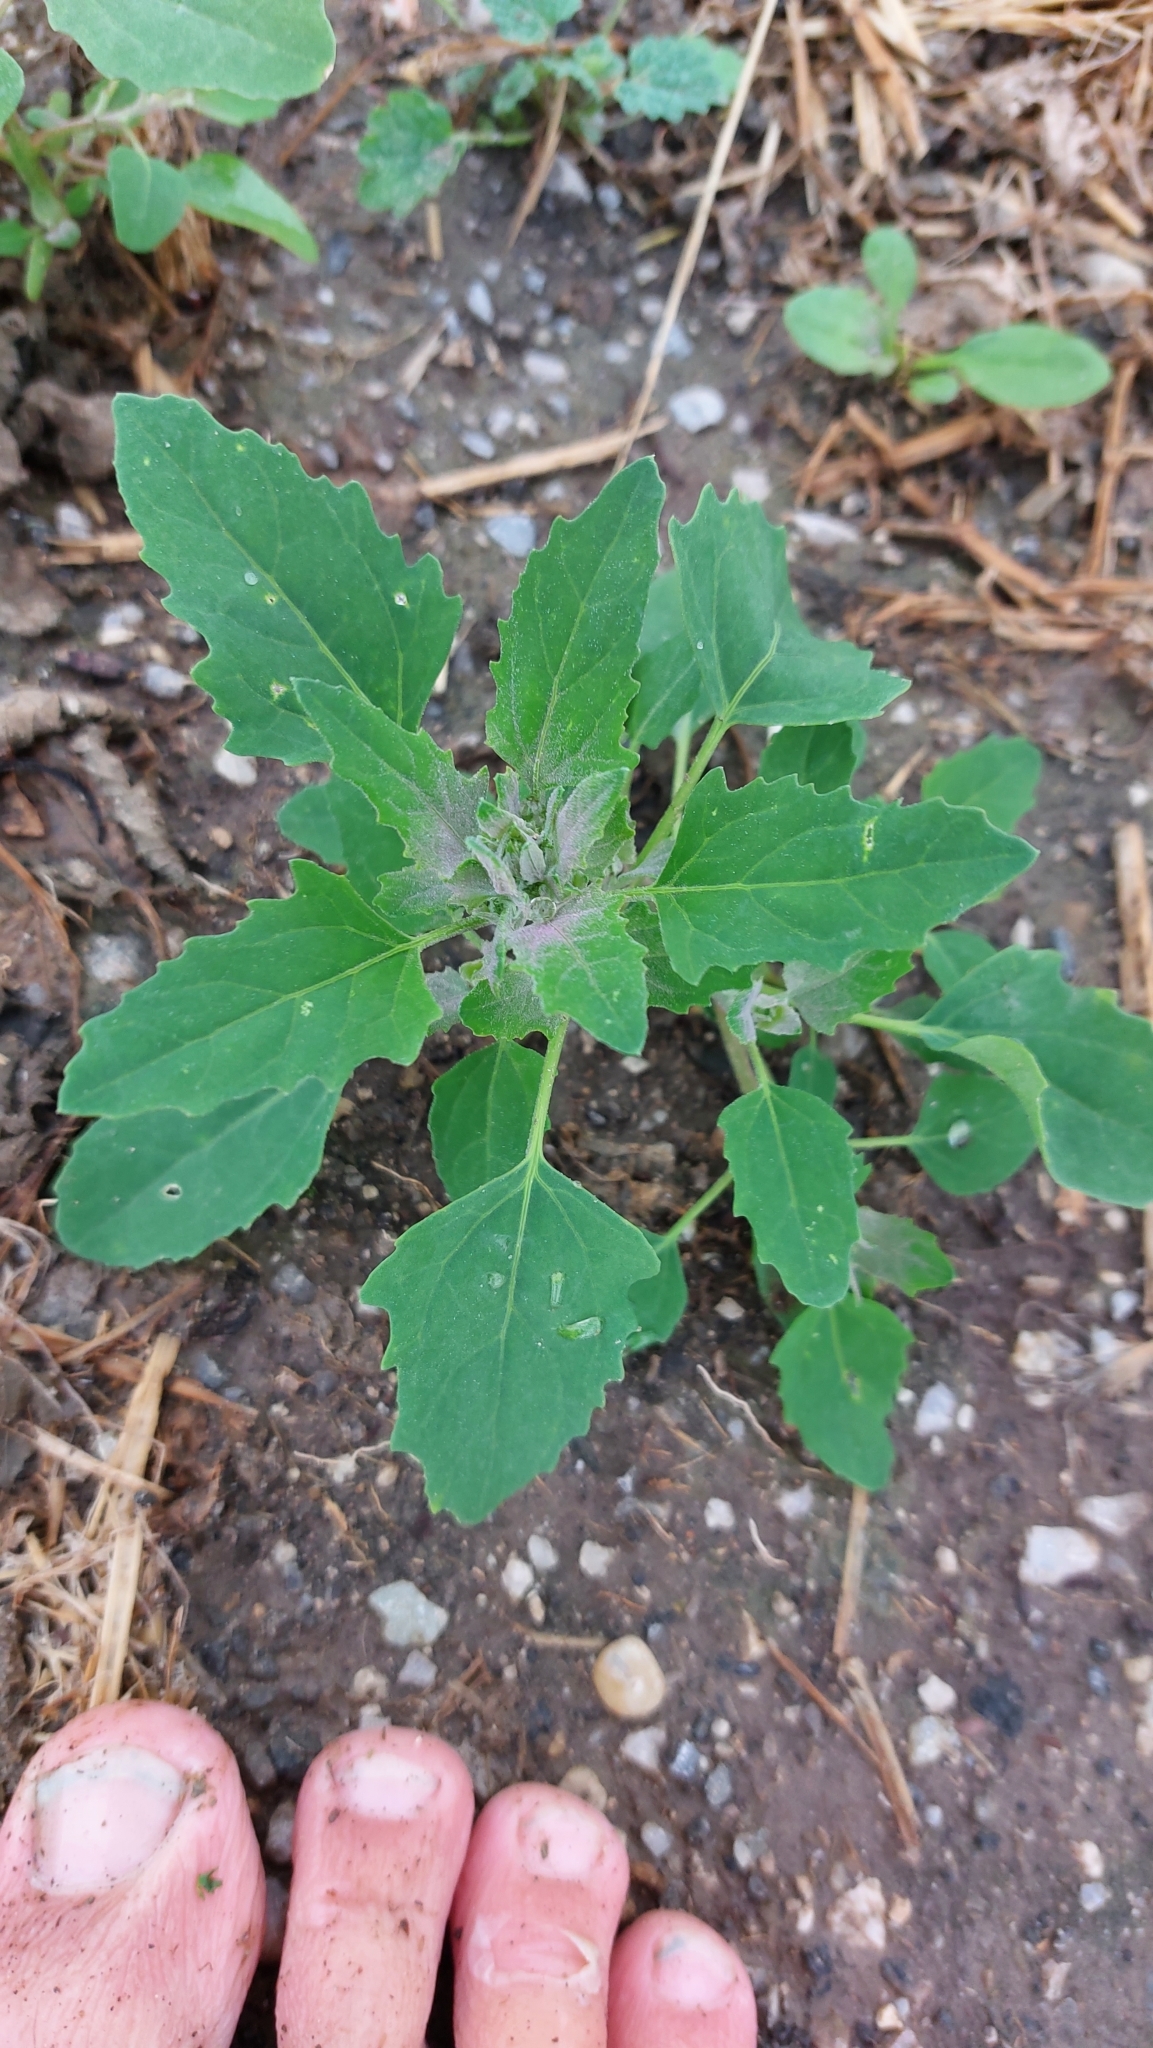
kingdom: Plantae
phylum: Tracheophyta
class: Magnoliopsida
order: Caryophyllales
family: Amaranthaceae
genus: Chenopodium
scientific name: Chenopodium album
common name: Fat-hen
